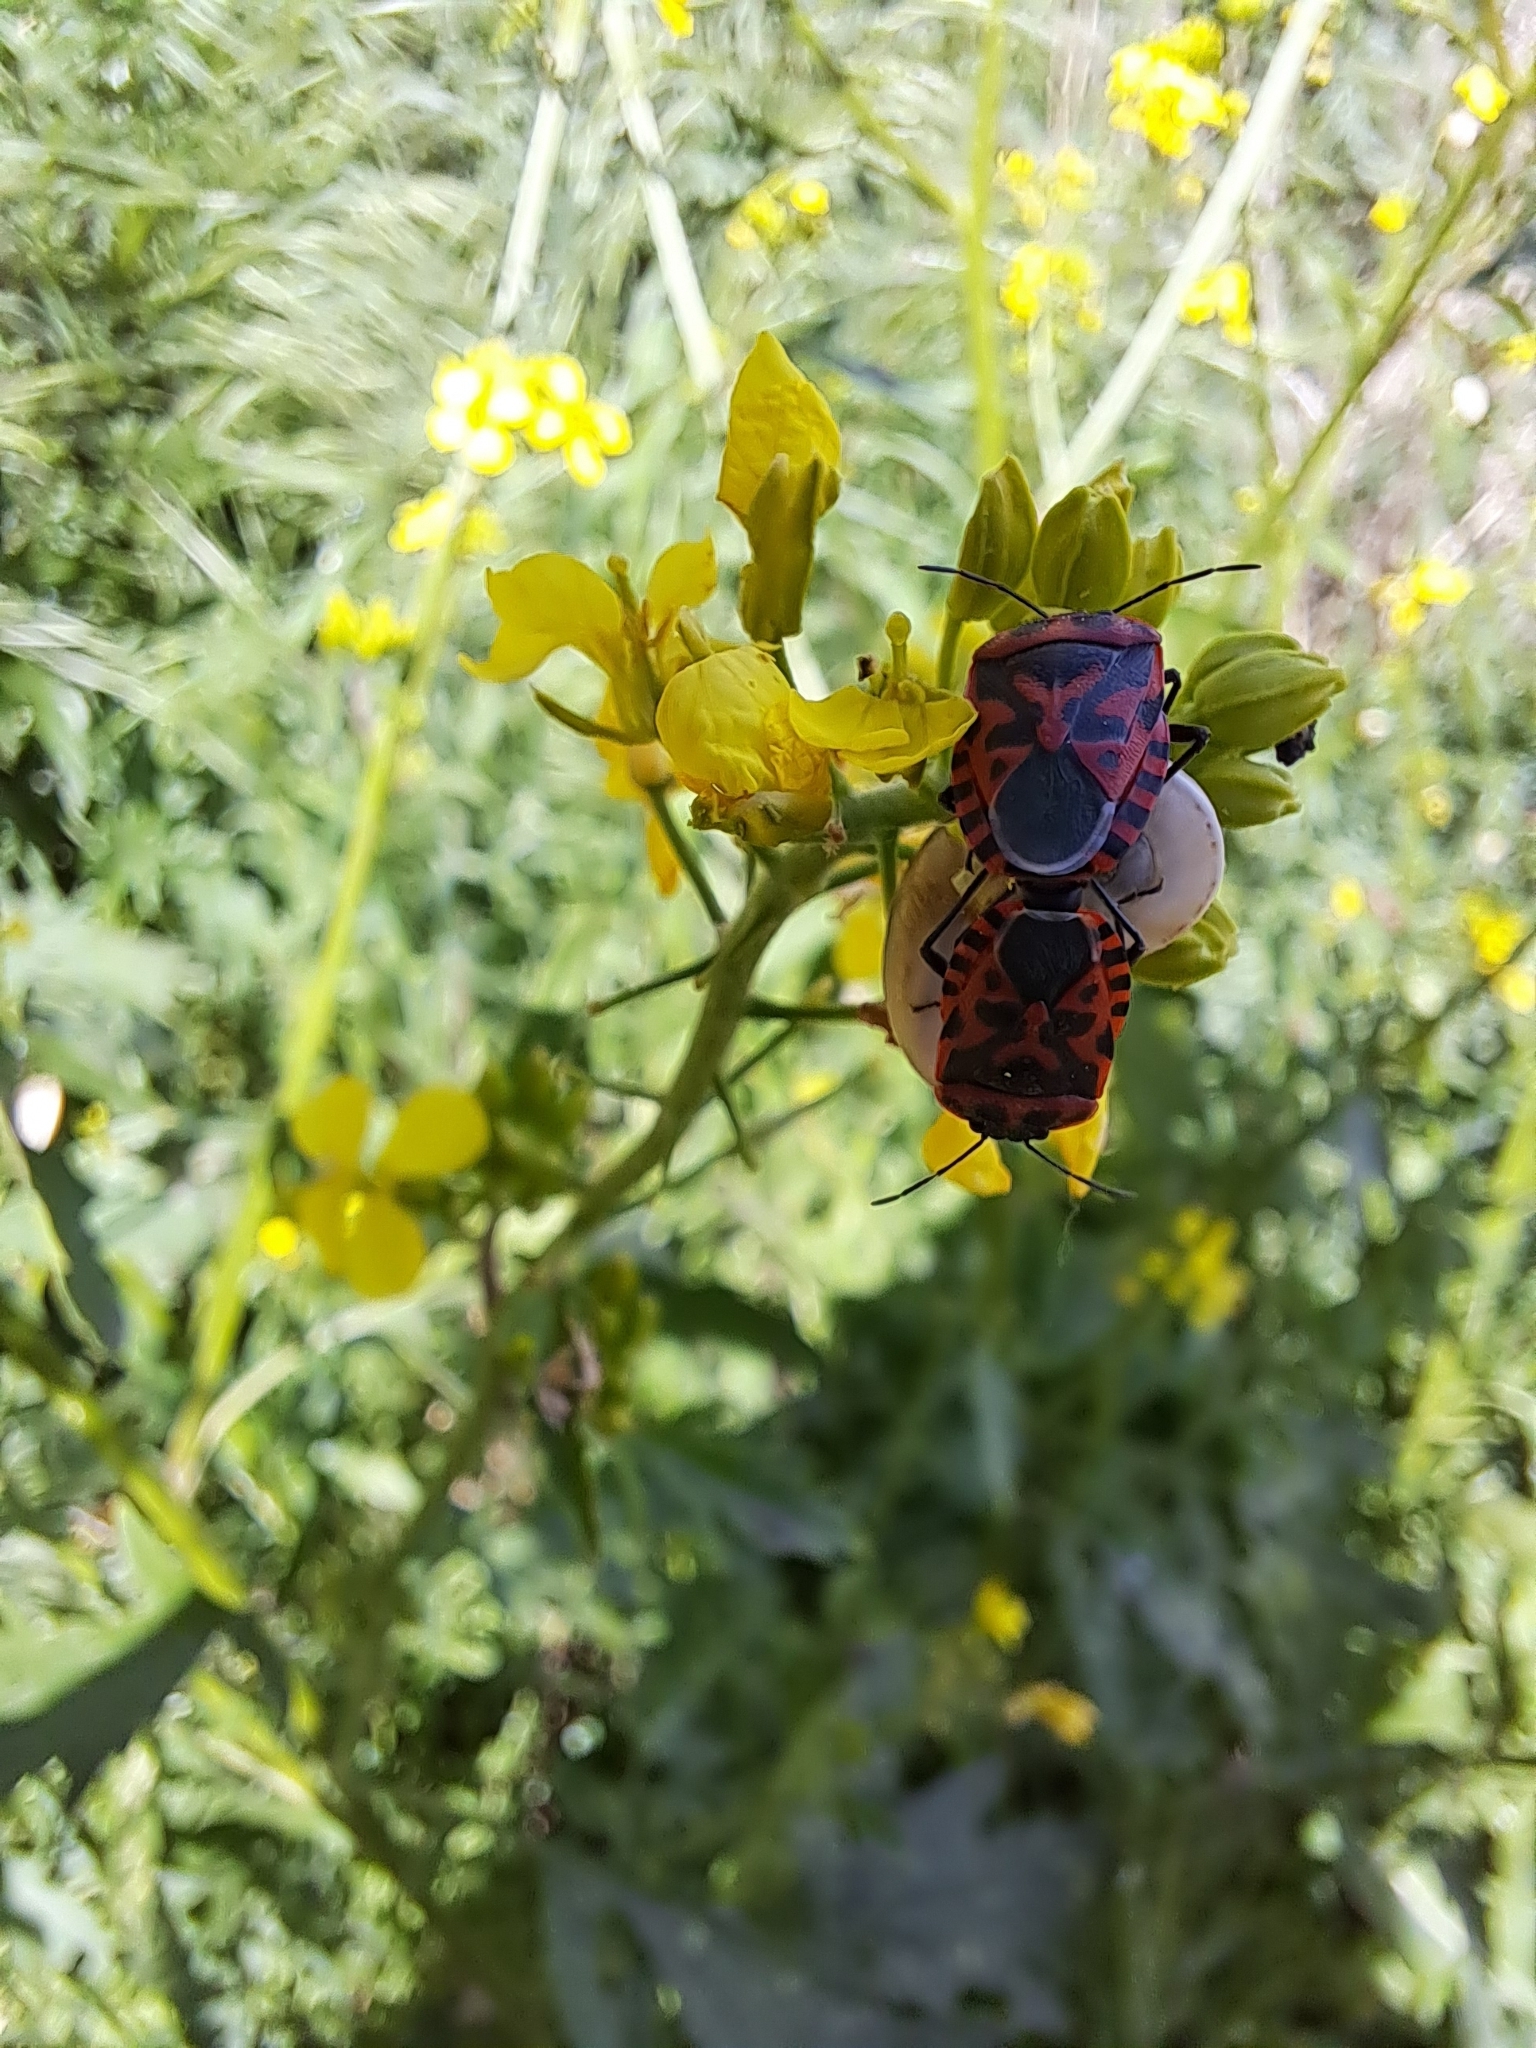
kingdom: Animalia
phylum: Arthropoda
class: Insecta
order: Hemiptera
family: Pentatomidae
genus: Eurydema
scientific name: Eurydema ventralis
